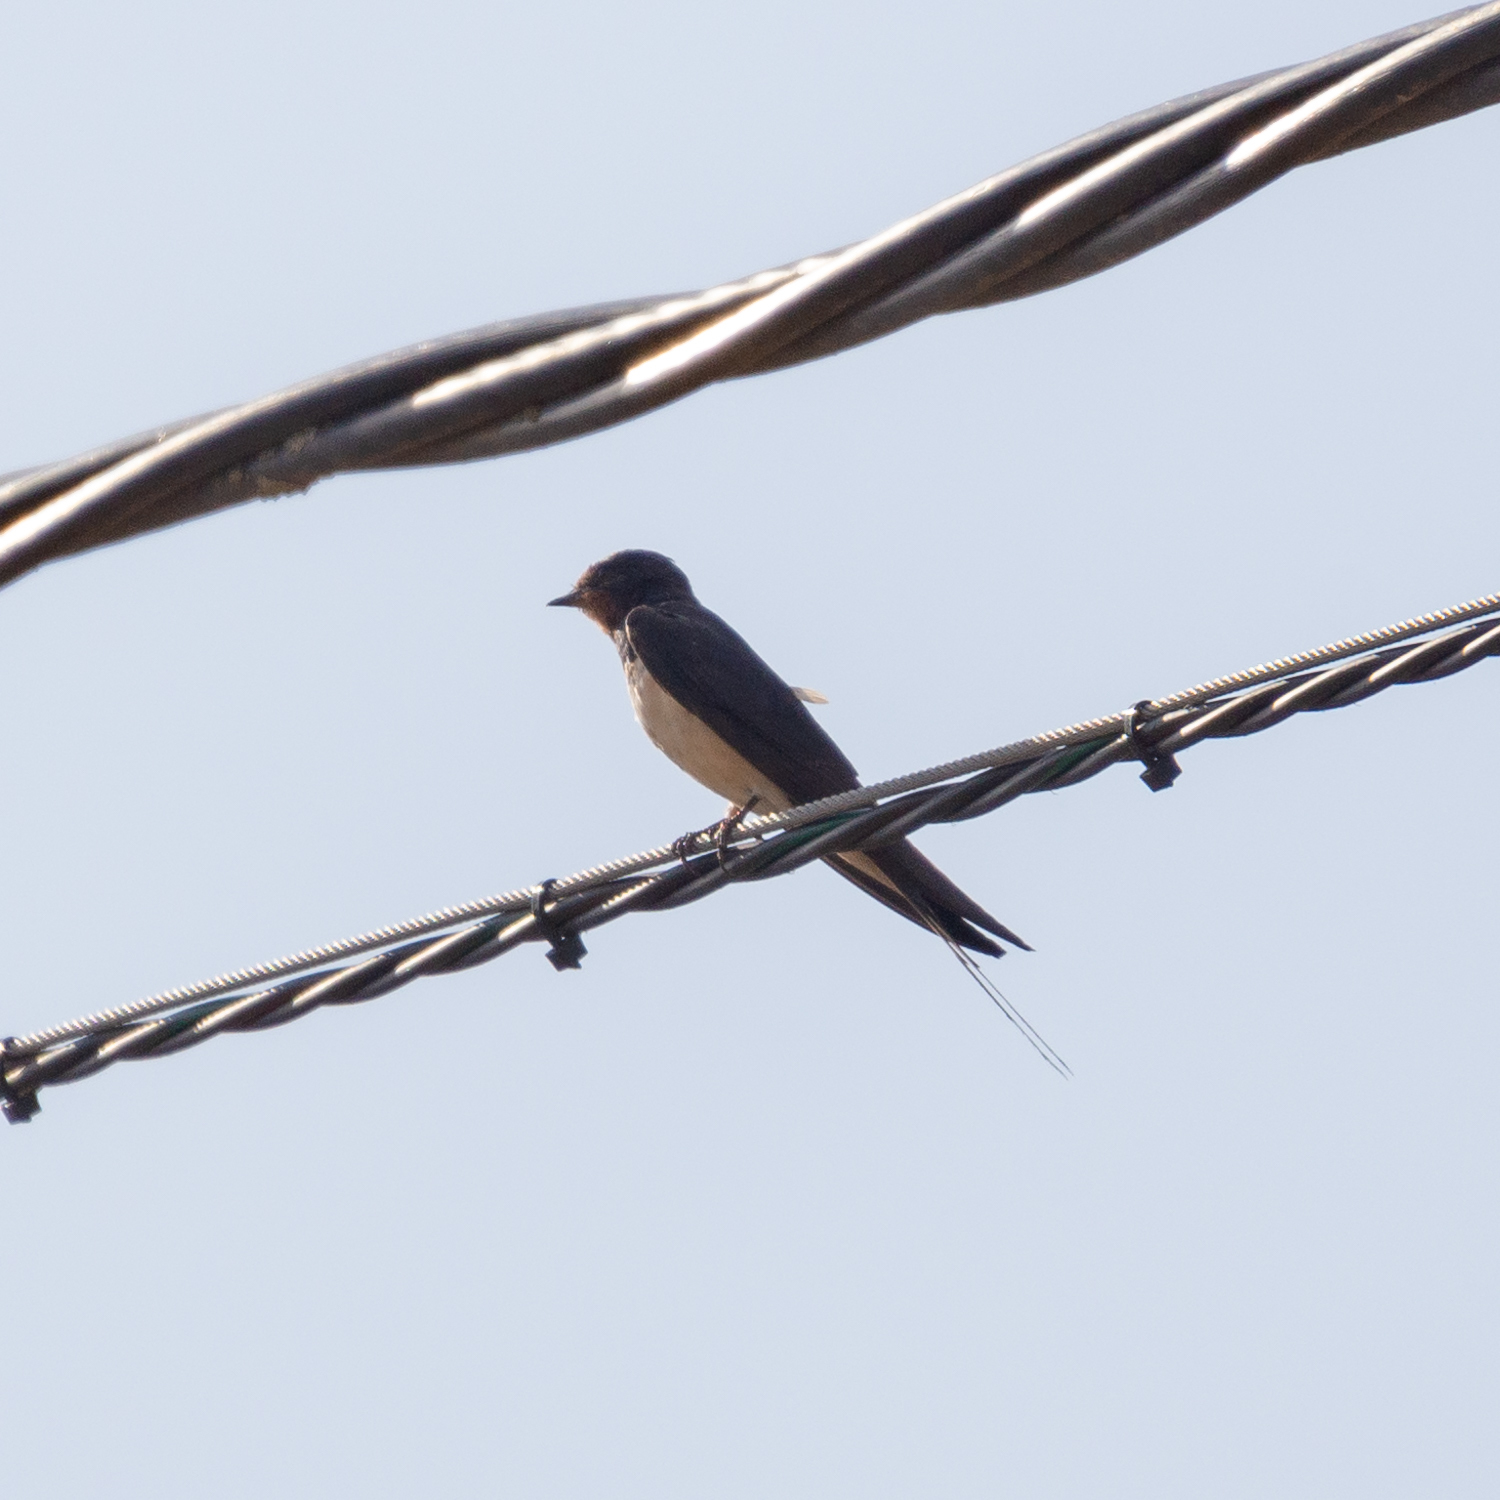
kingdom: Animalia
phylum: Chordata
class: Aves
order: Passeriformes
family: Hirundinidae
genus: Hirundo
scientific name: Hirundo rustica
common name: Barn swallow
